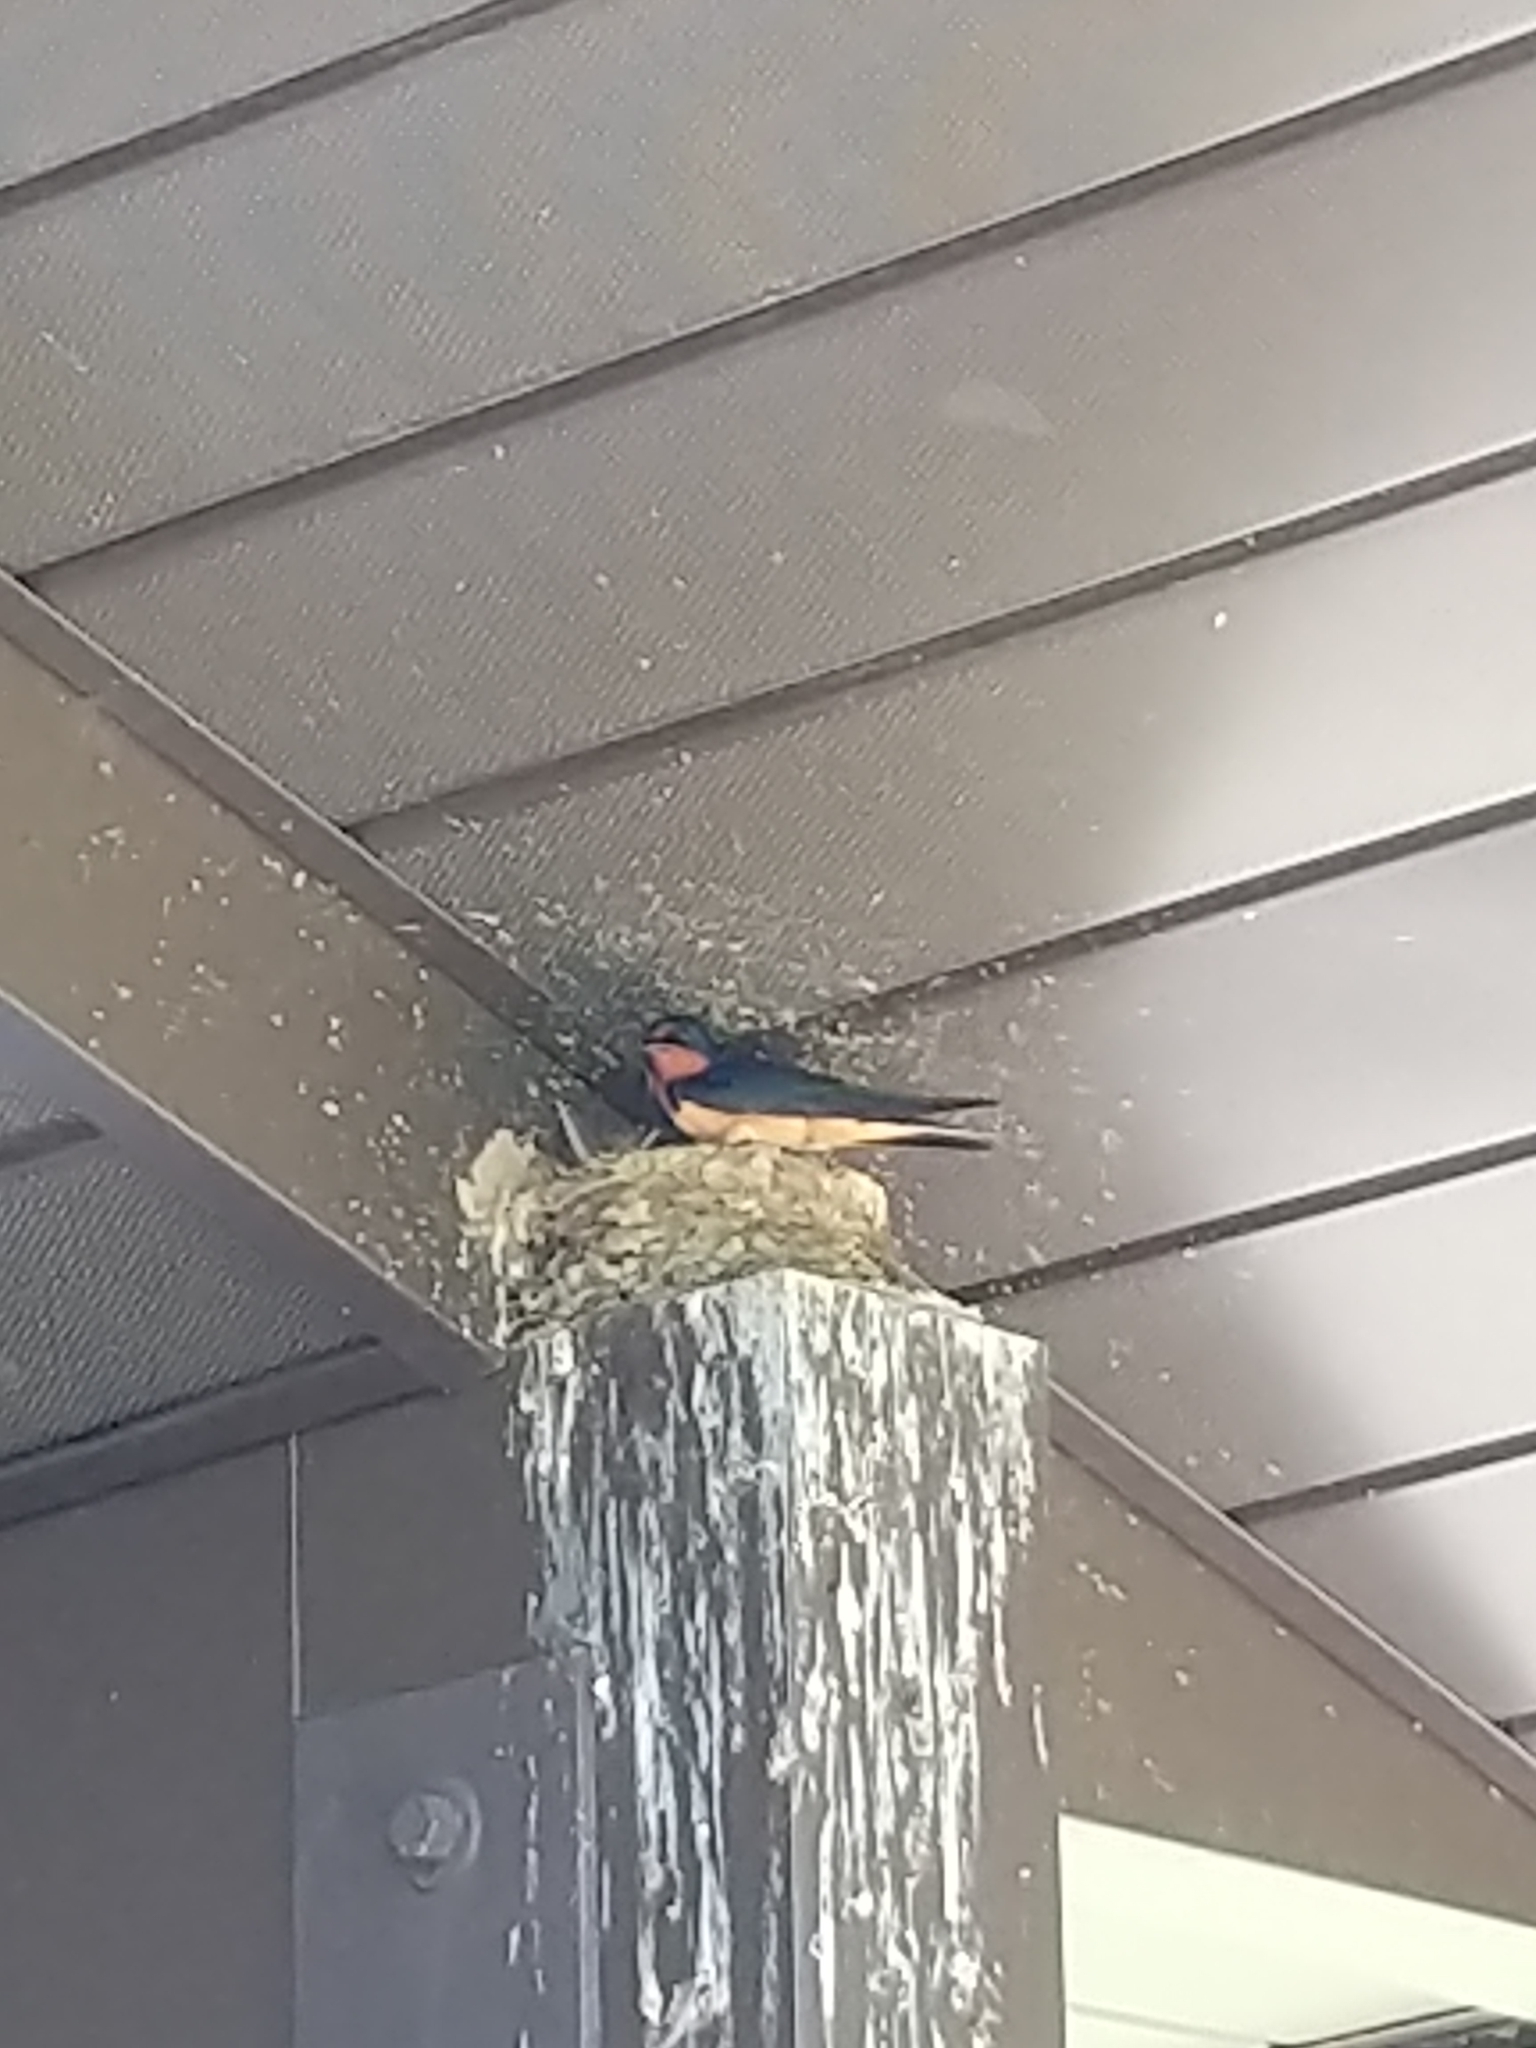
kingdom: Animalia
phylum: Chordata
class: Aves
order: Passeriformes
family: Hirundinidae
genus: Hirundo
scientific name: Hirundo rustica
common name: Barn swallow
